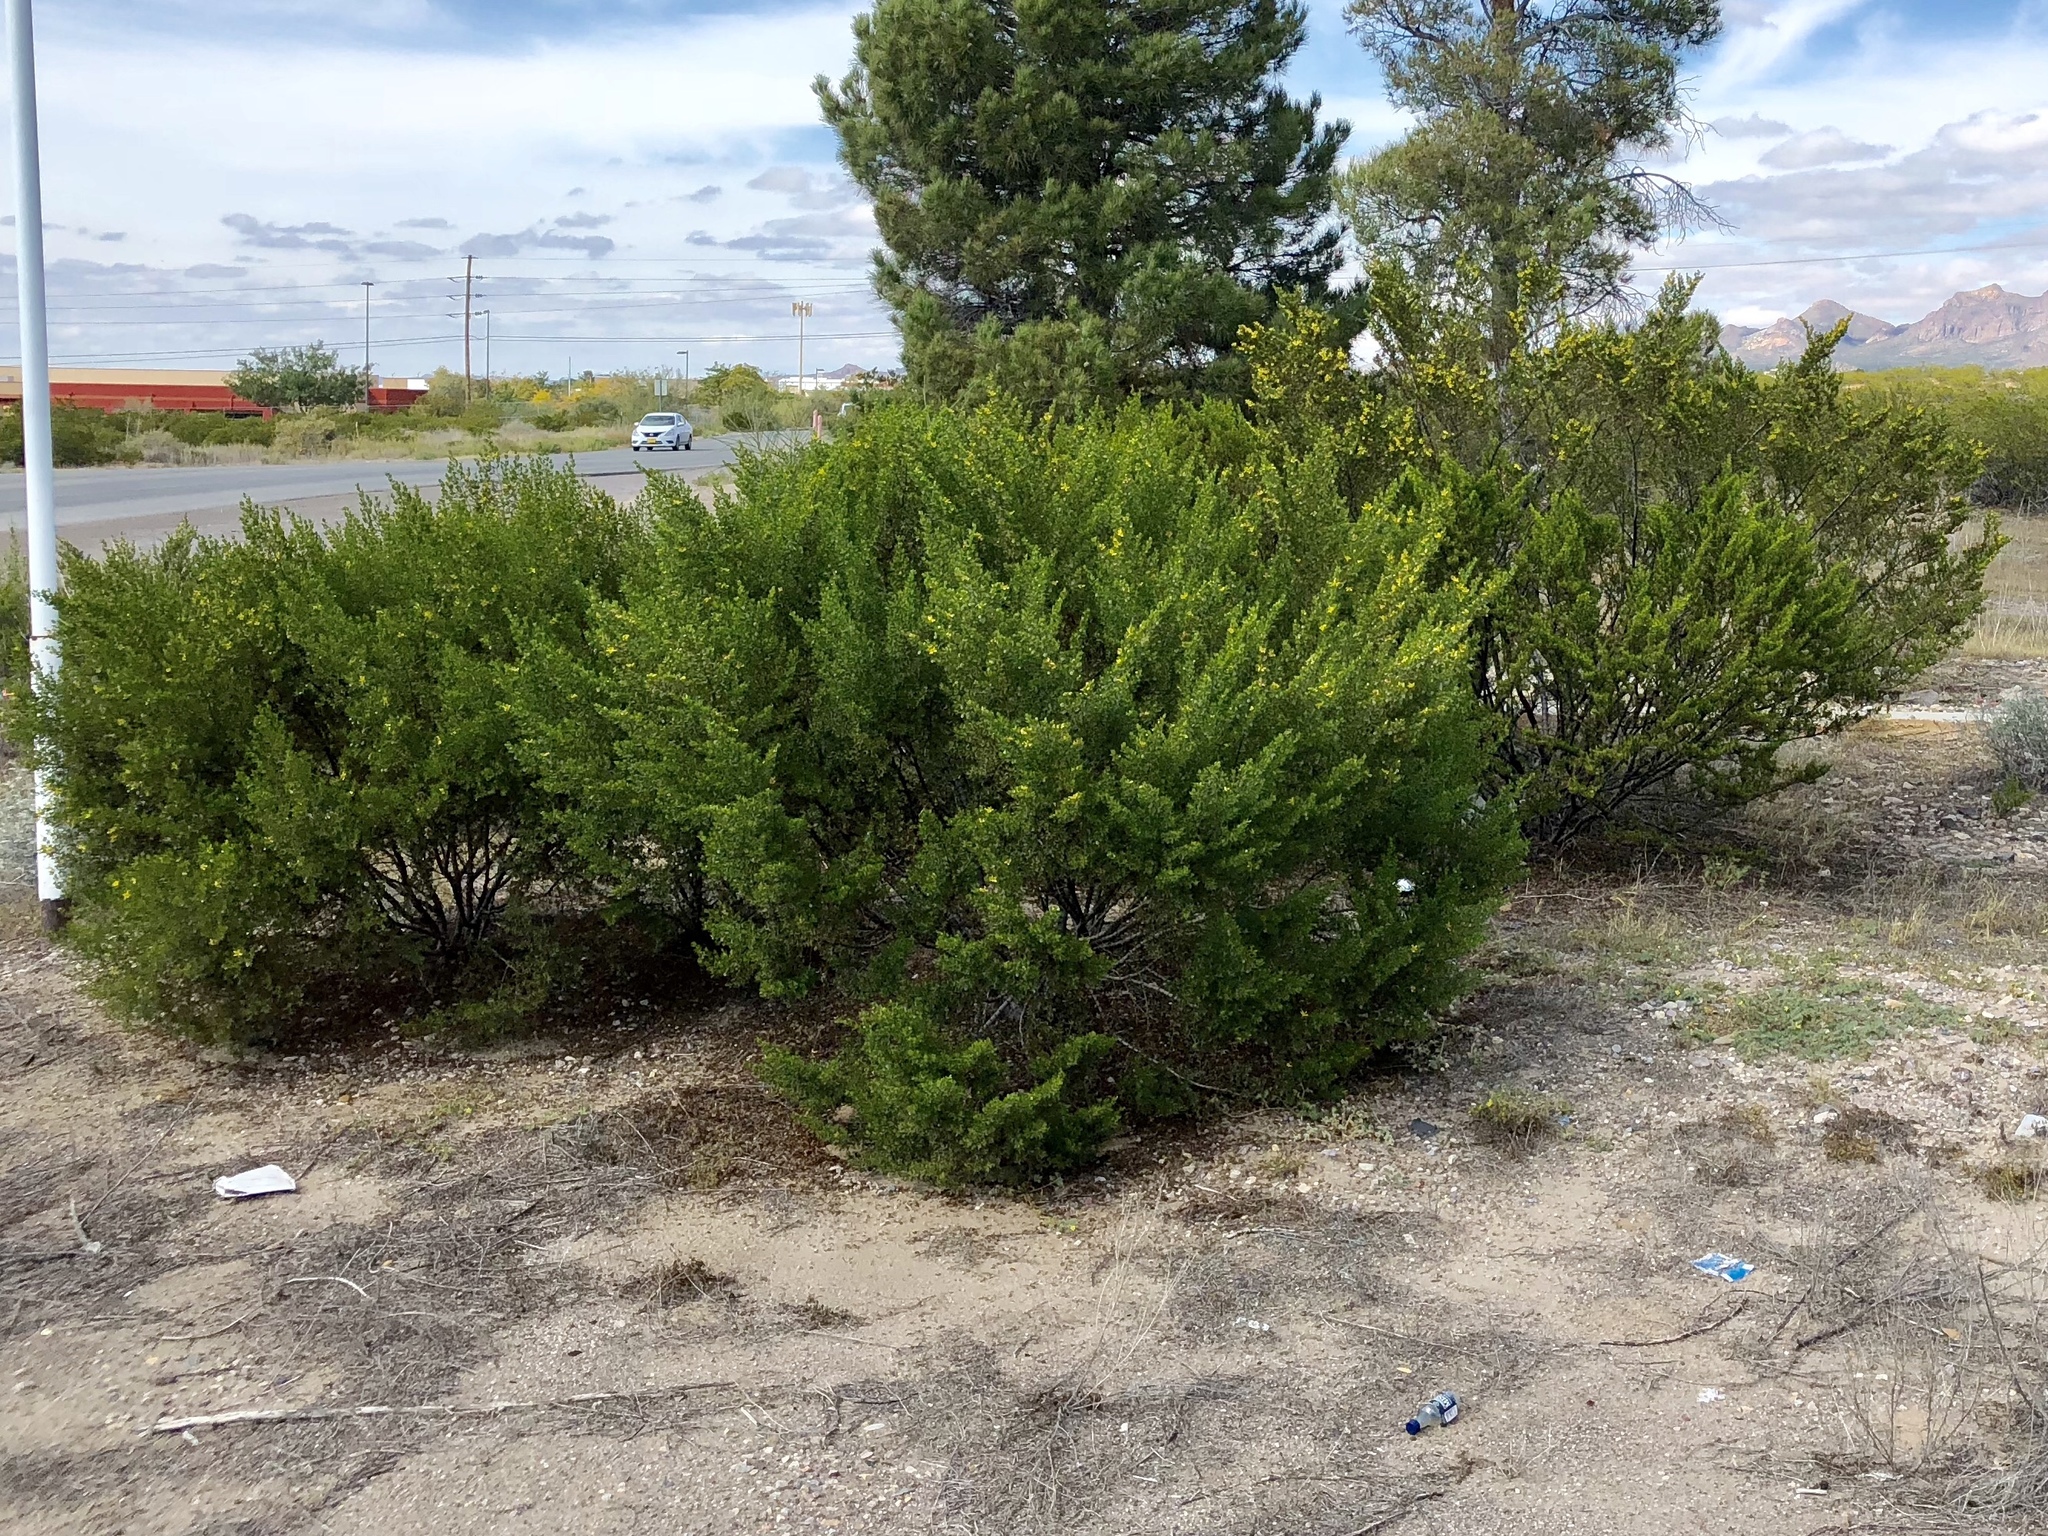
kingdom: Plantae
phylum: Tracheophyta
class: Magnoliopsida
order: Zygophyllales
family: Zygophyllaceae
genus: Larrea
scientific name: Larrea tridentata
